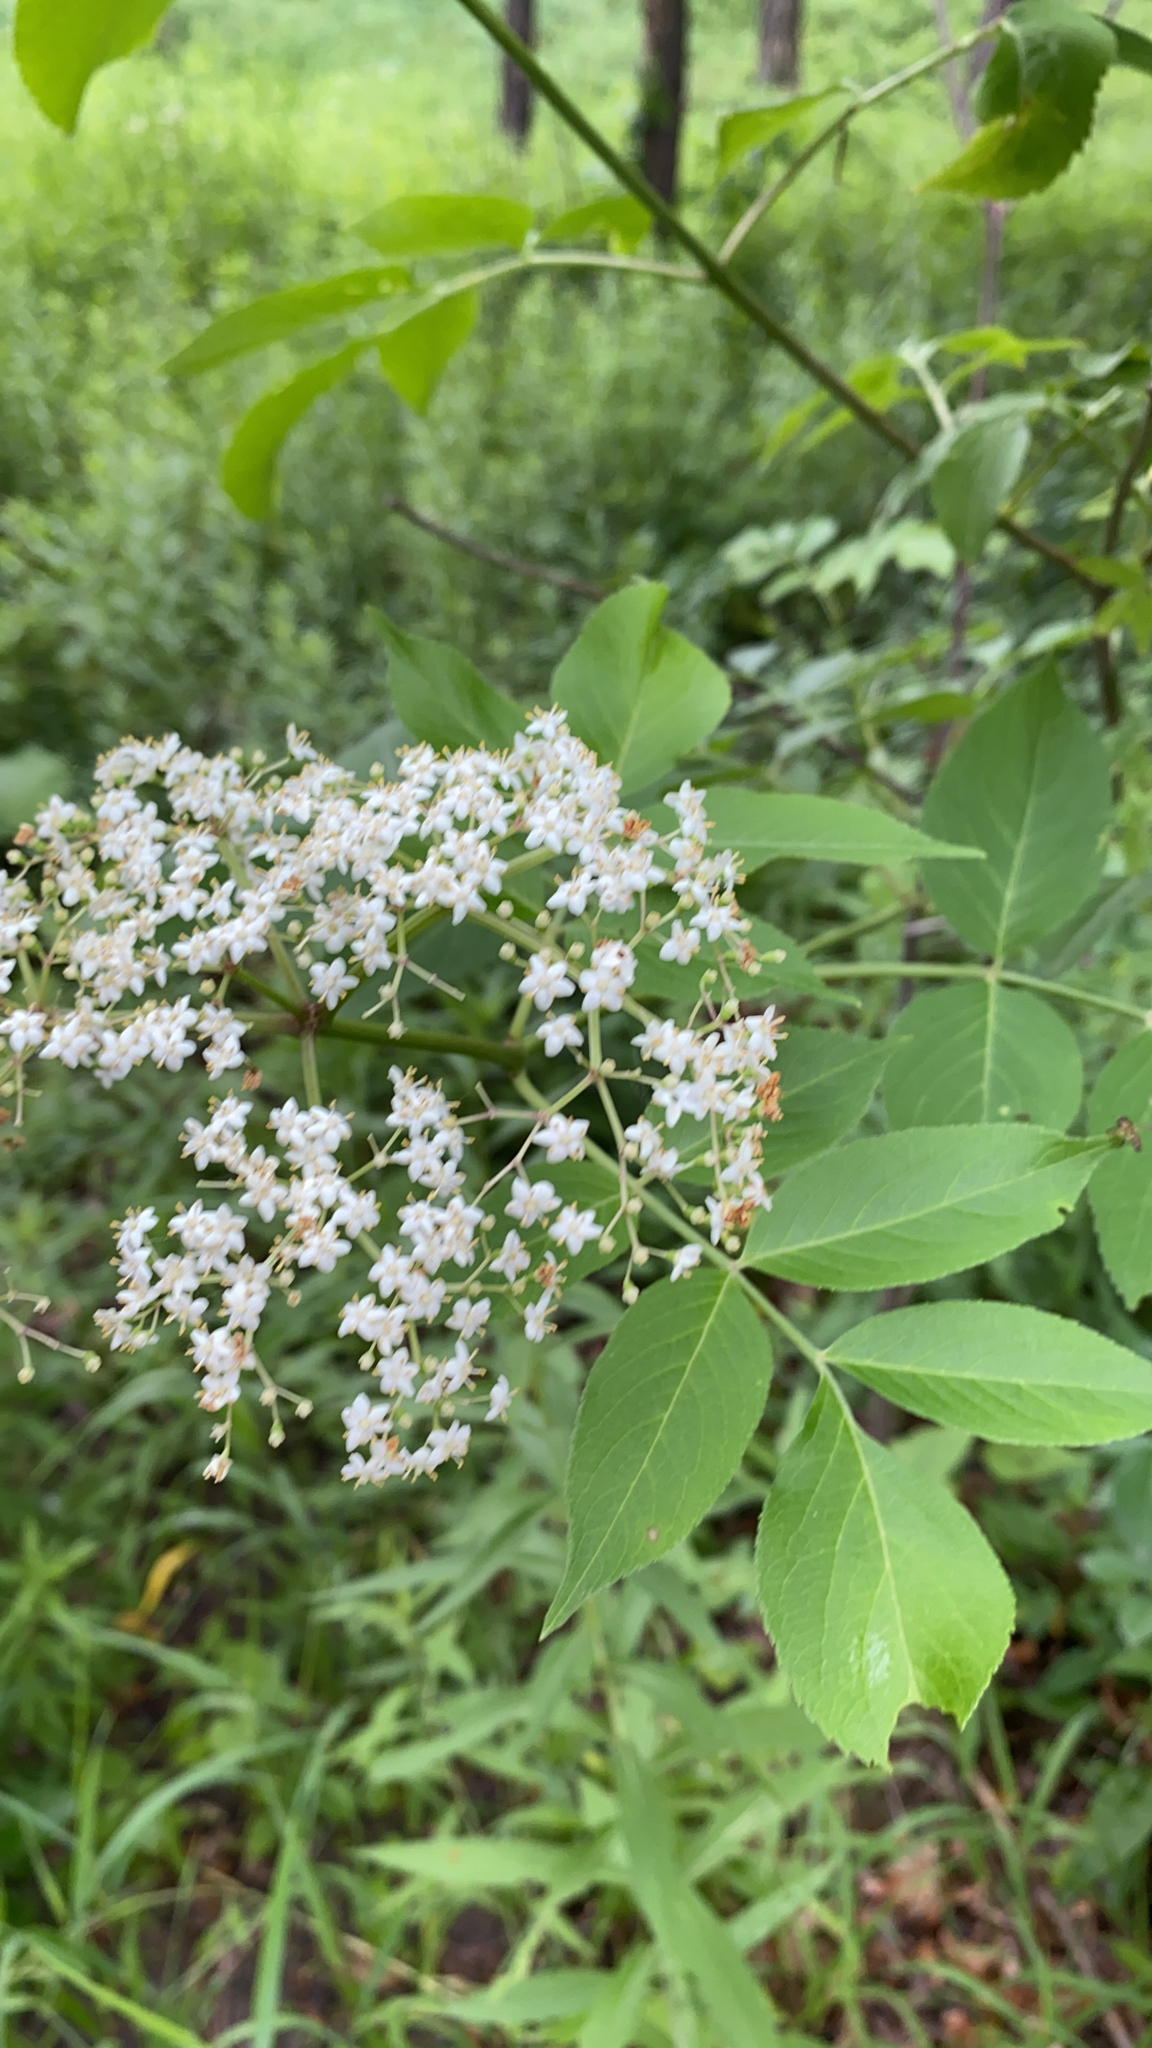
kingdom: Plantae
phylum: Tracheophyta
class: Magnoliopsida
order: Dipsacales
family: Viburnaceae
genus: Sambucus
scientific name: Sambucus canadensis
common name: American elder
